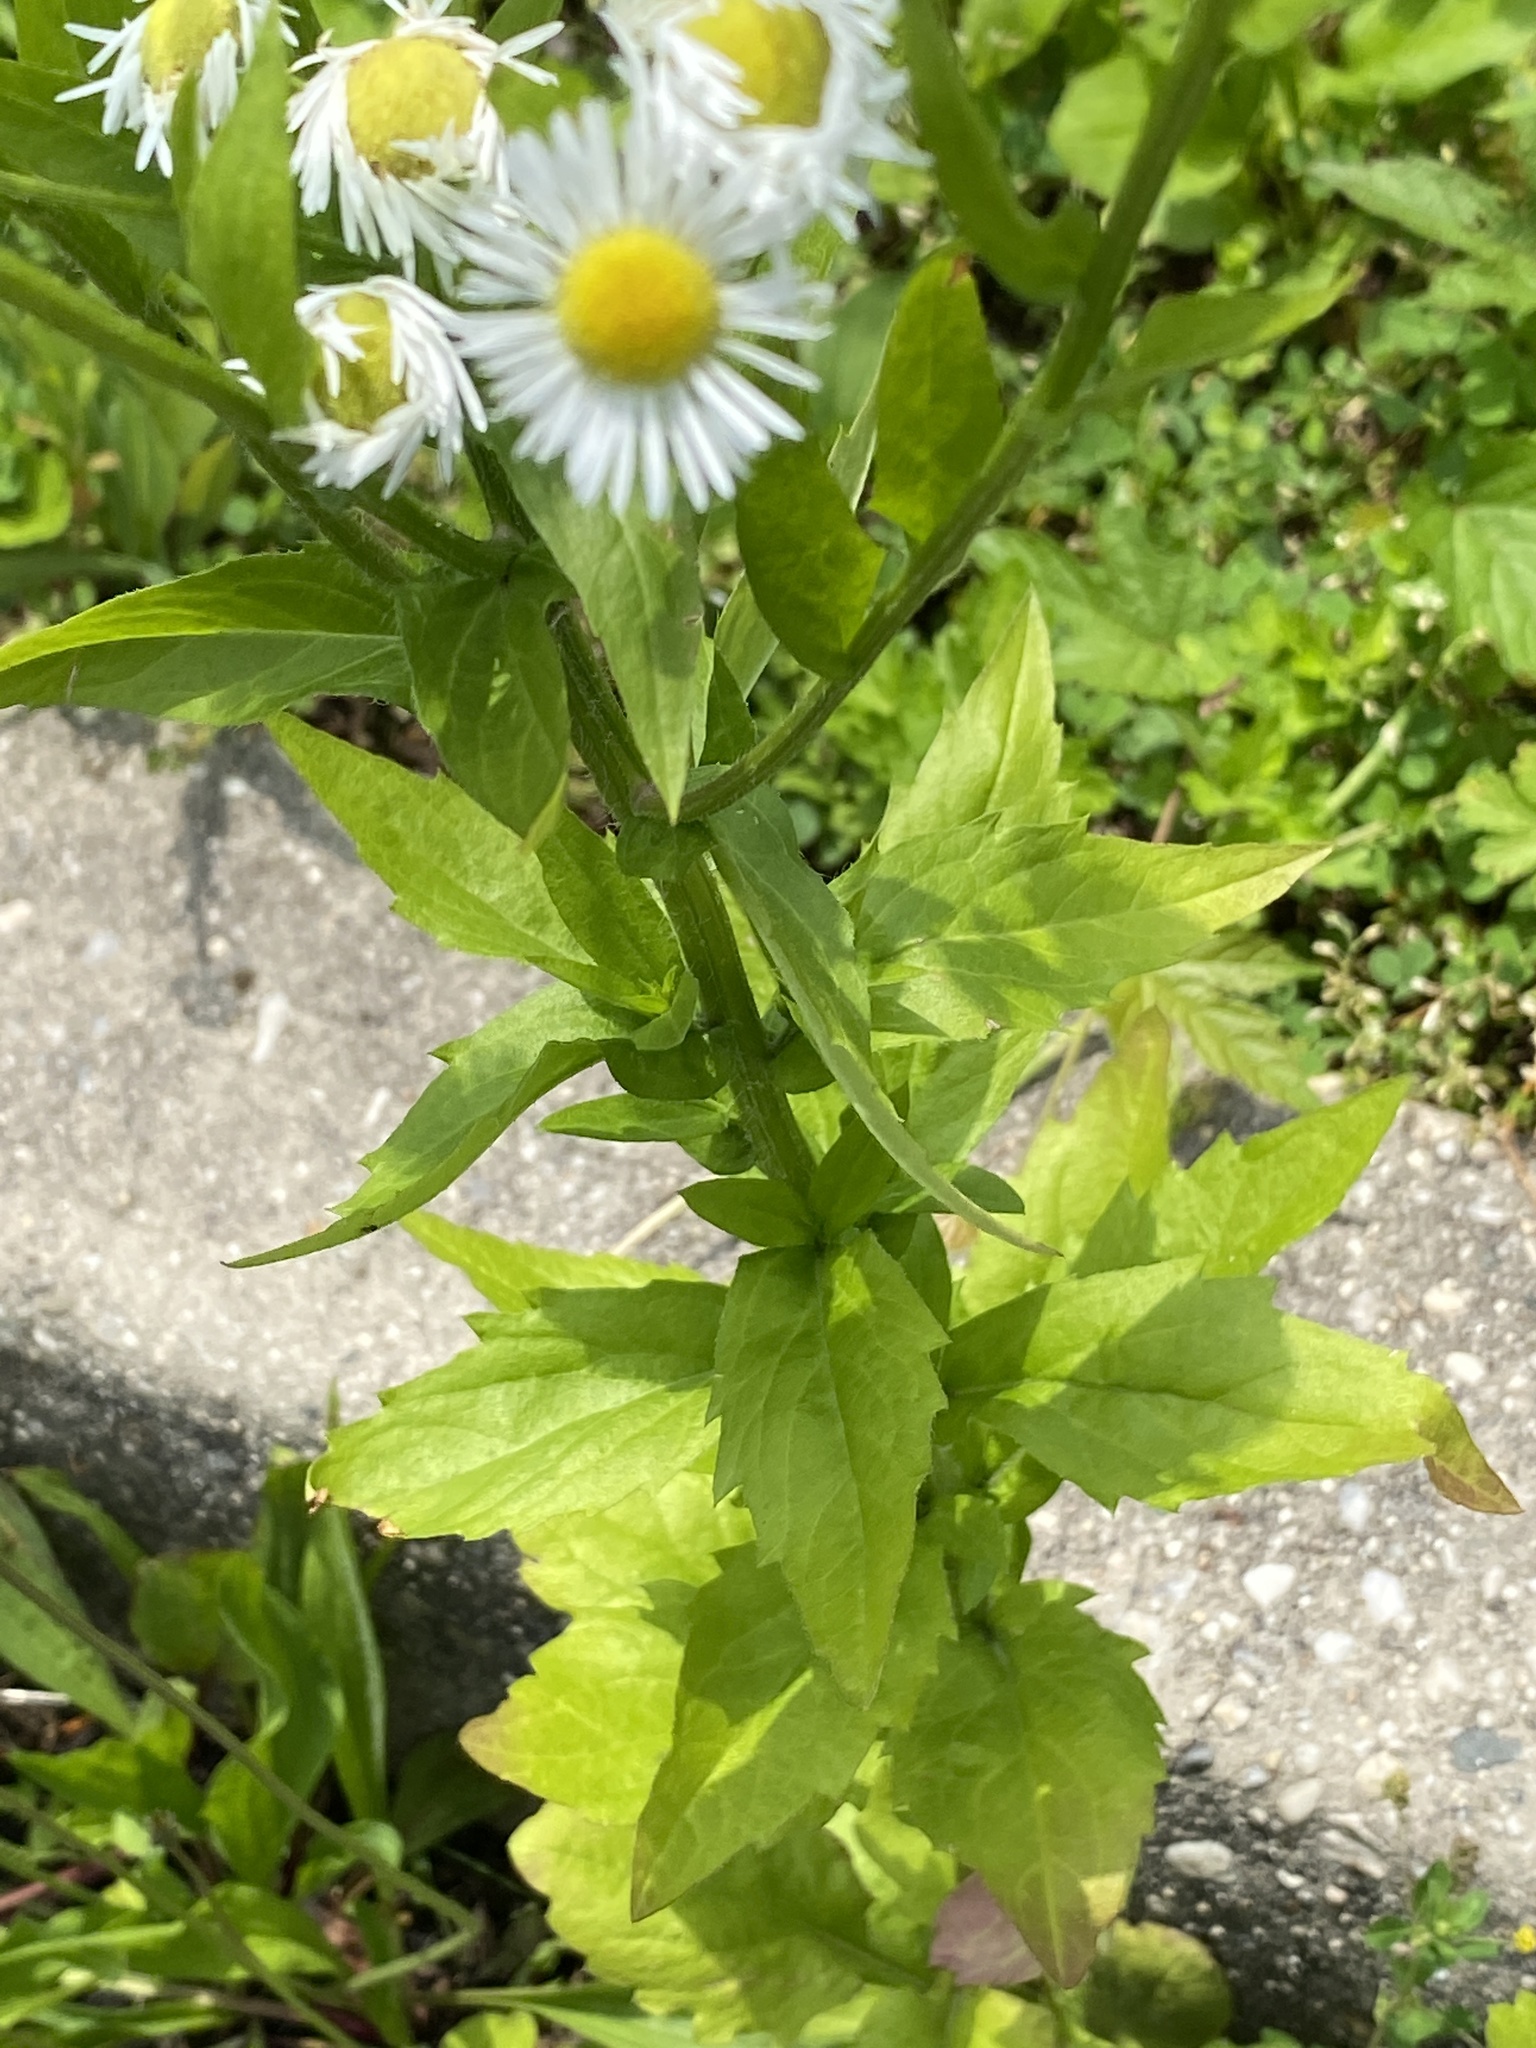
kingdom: Plantae
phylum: Tracheophyta
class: Magnoliopsida
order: Asterales
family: Asteraceae
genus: Erigeron
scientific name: Erigeron annuus
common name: Tall fleabane
